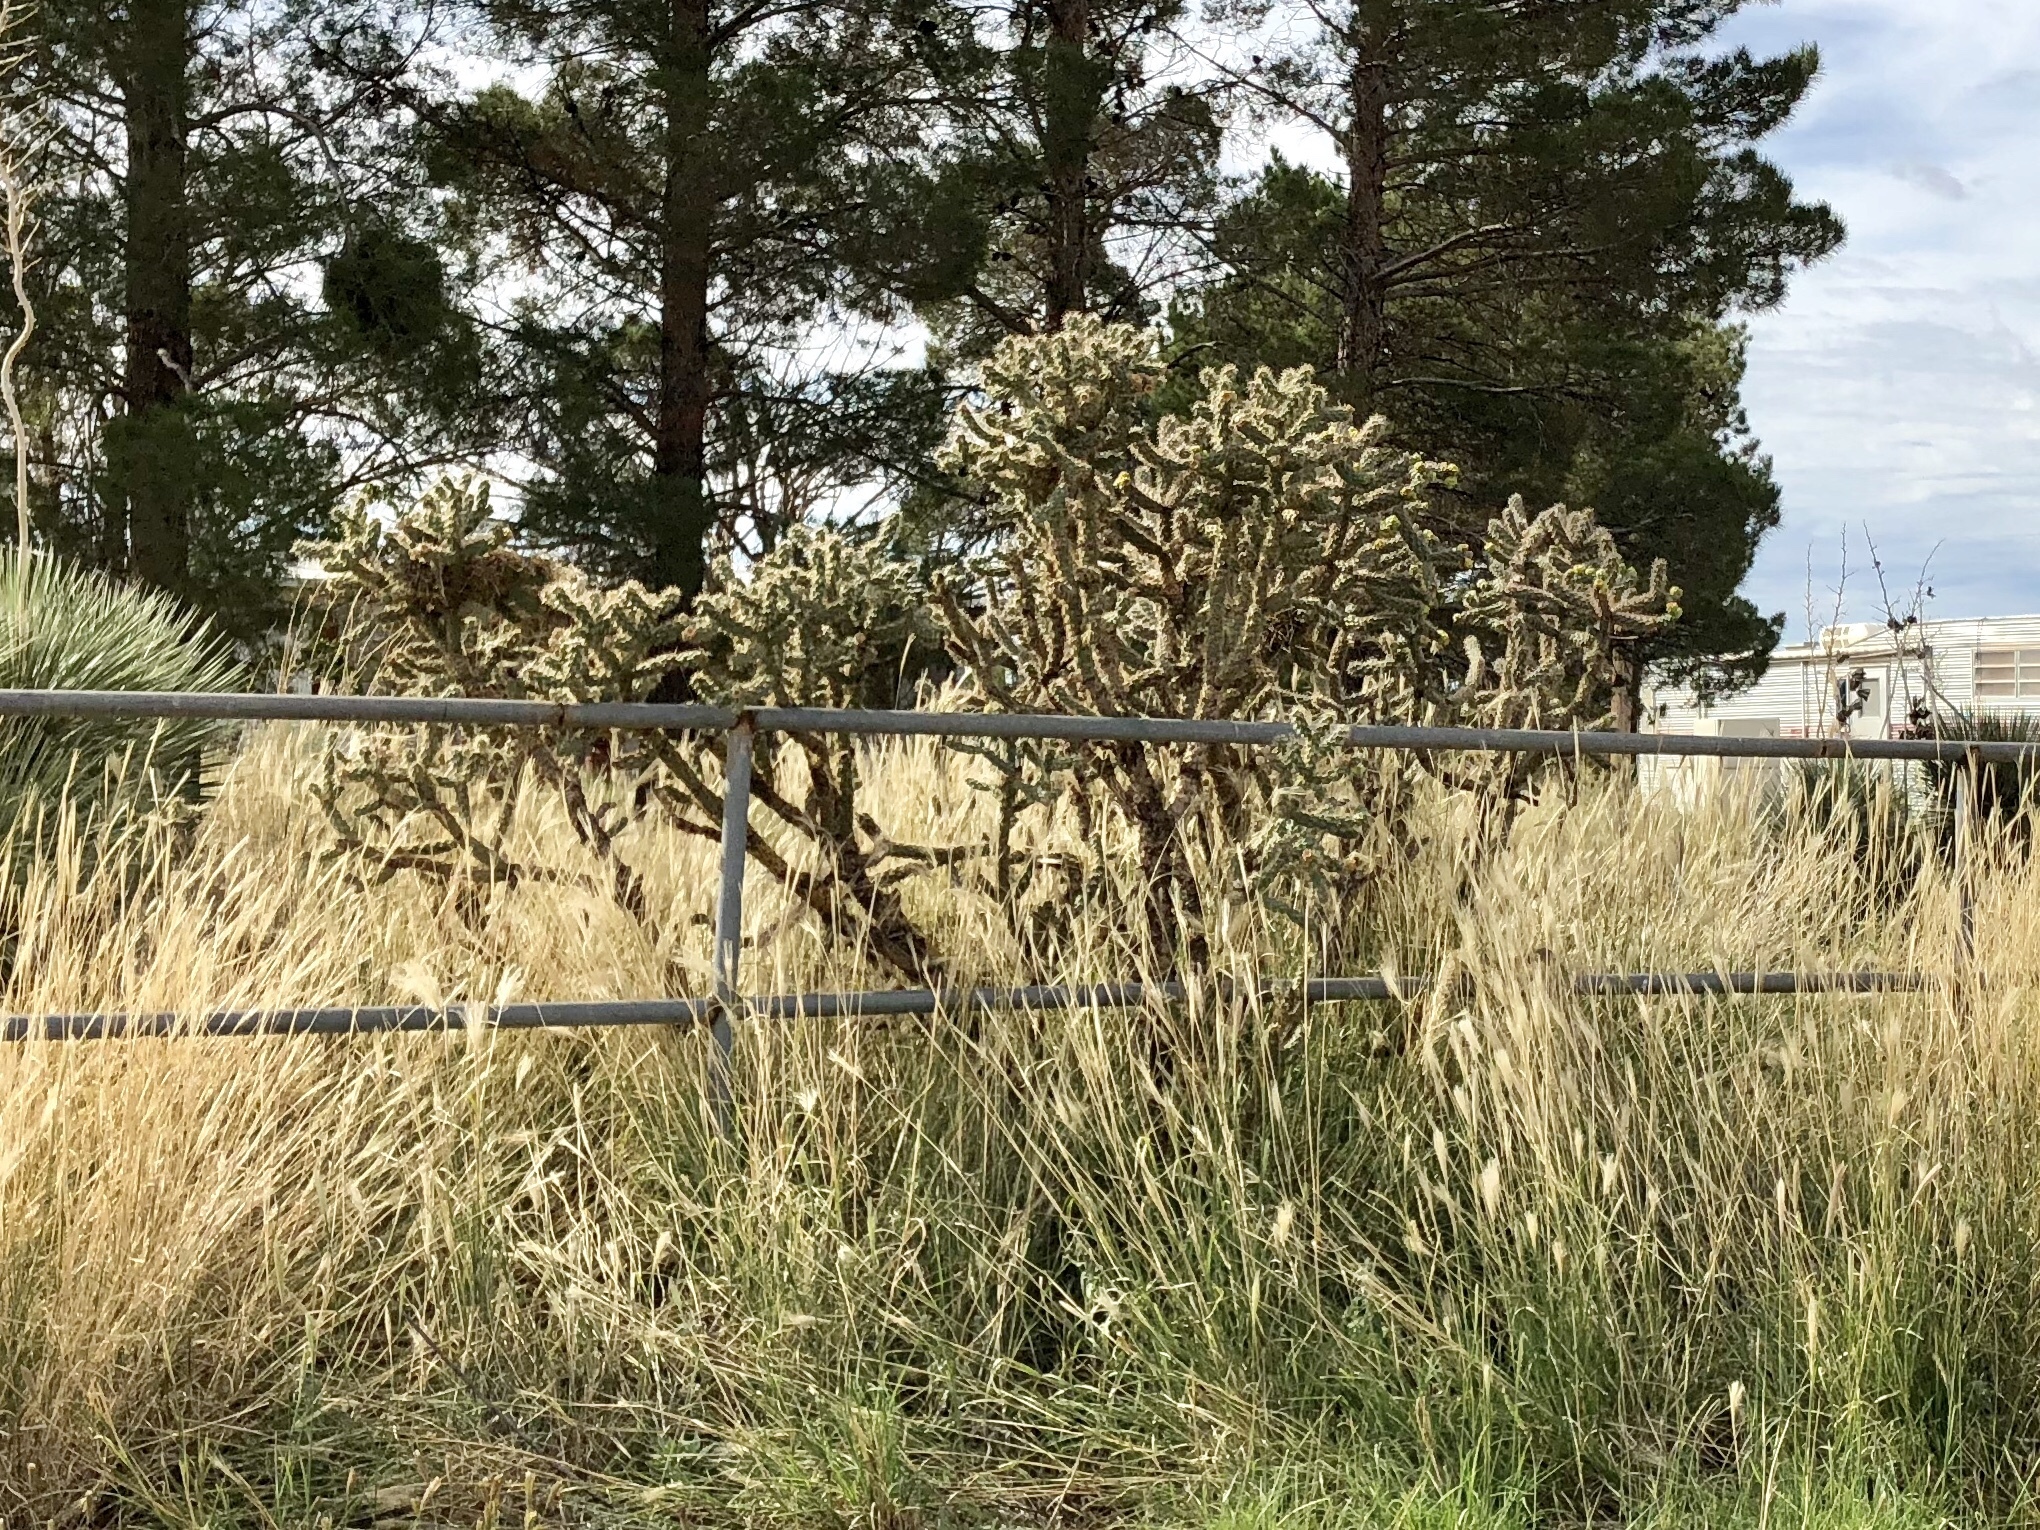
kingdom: Plantae
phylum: Tracheophyta
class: Magnoliopsida
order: Caryophyllales
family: Cactaceae
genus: Cylindropuntia
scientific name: Cylindropuntia imbricata
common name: Candelabrum cactus
